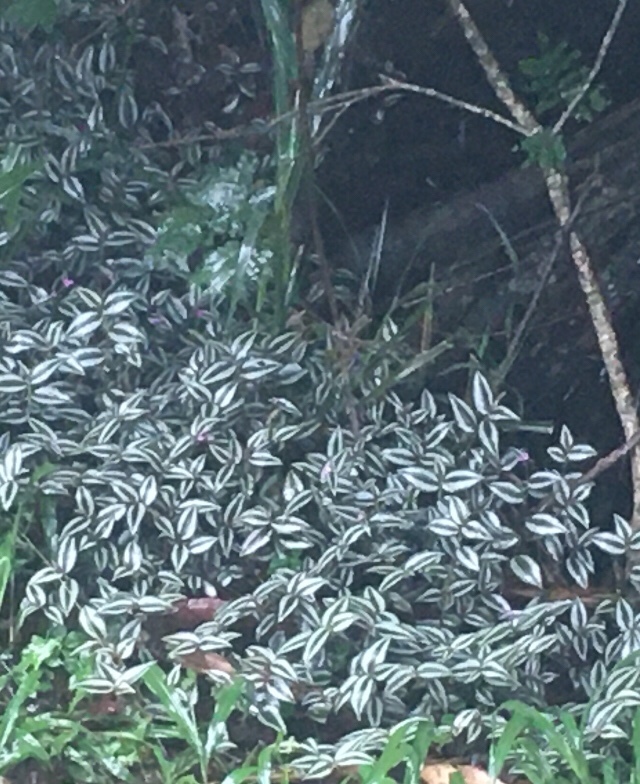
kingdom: Plantae
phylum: Tracheophyta
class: Liliopsida
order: Commelinales
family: Commelinaceae
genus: Tradescantia
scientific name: Tradescantia zebrina
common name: Inchplant
